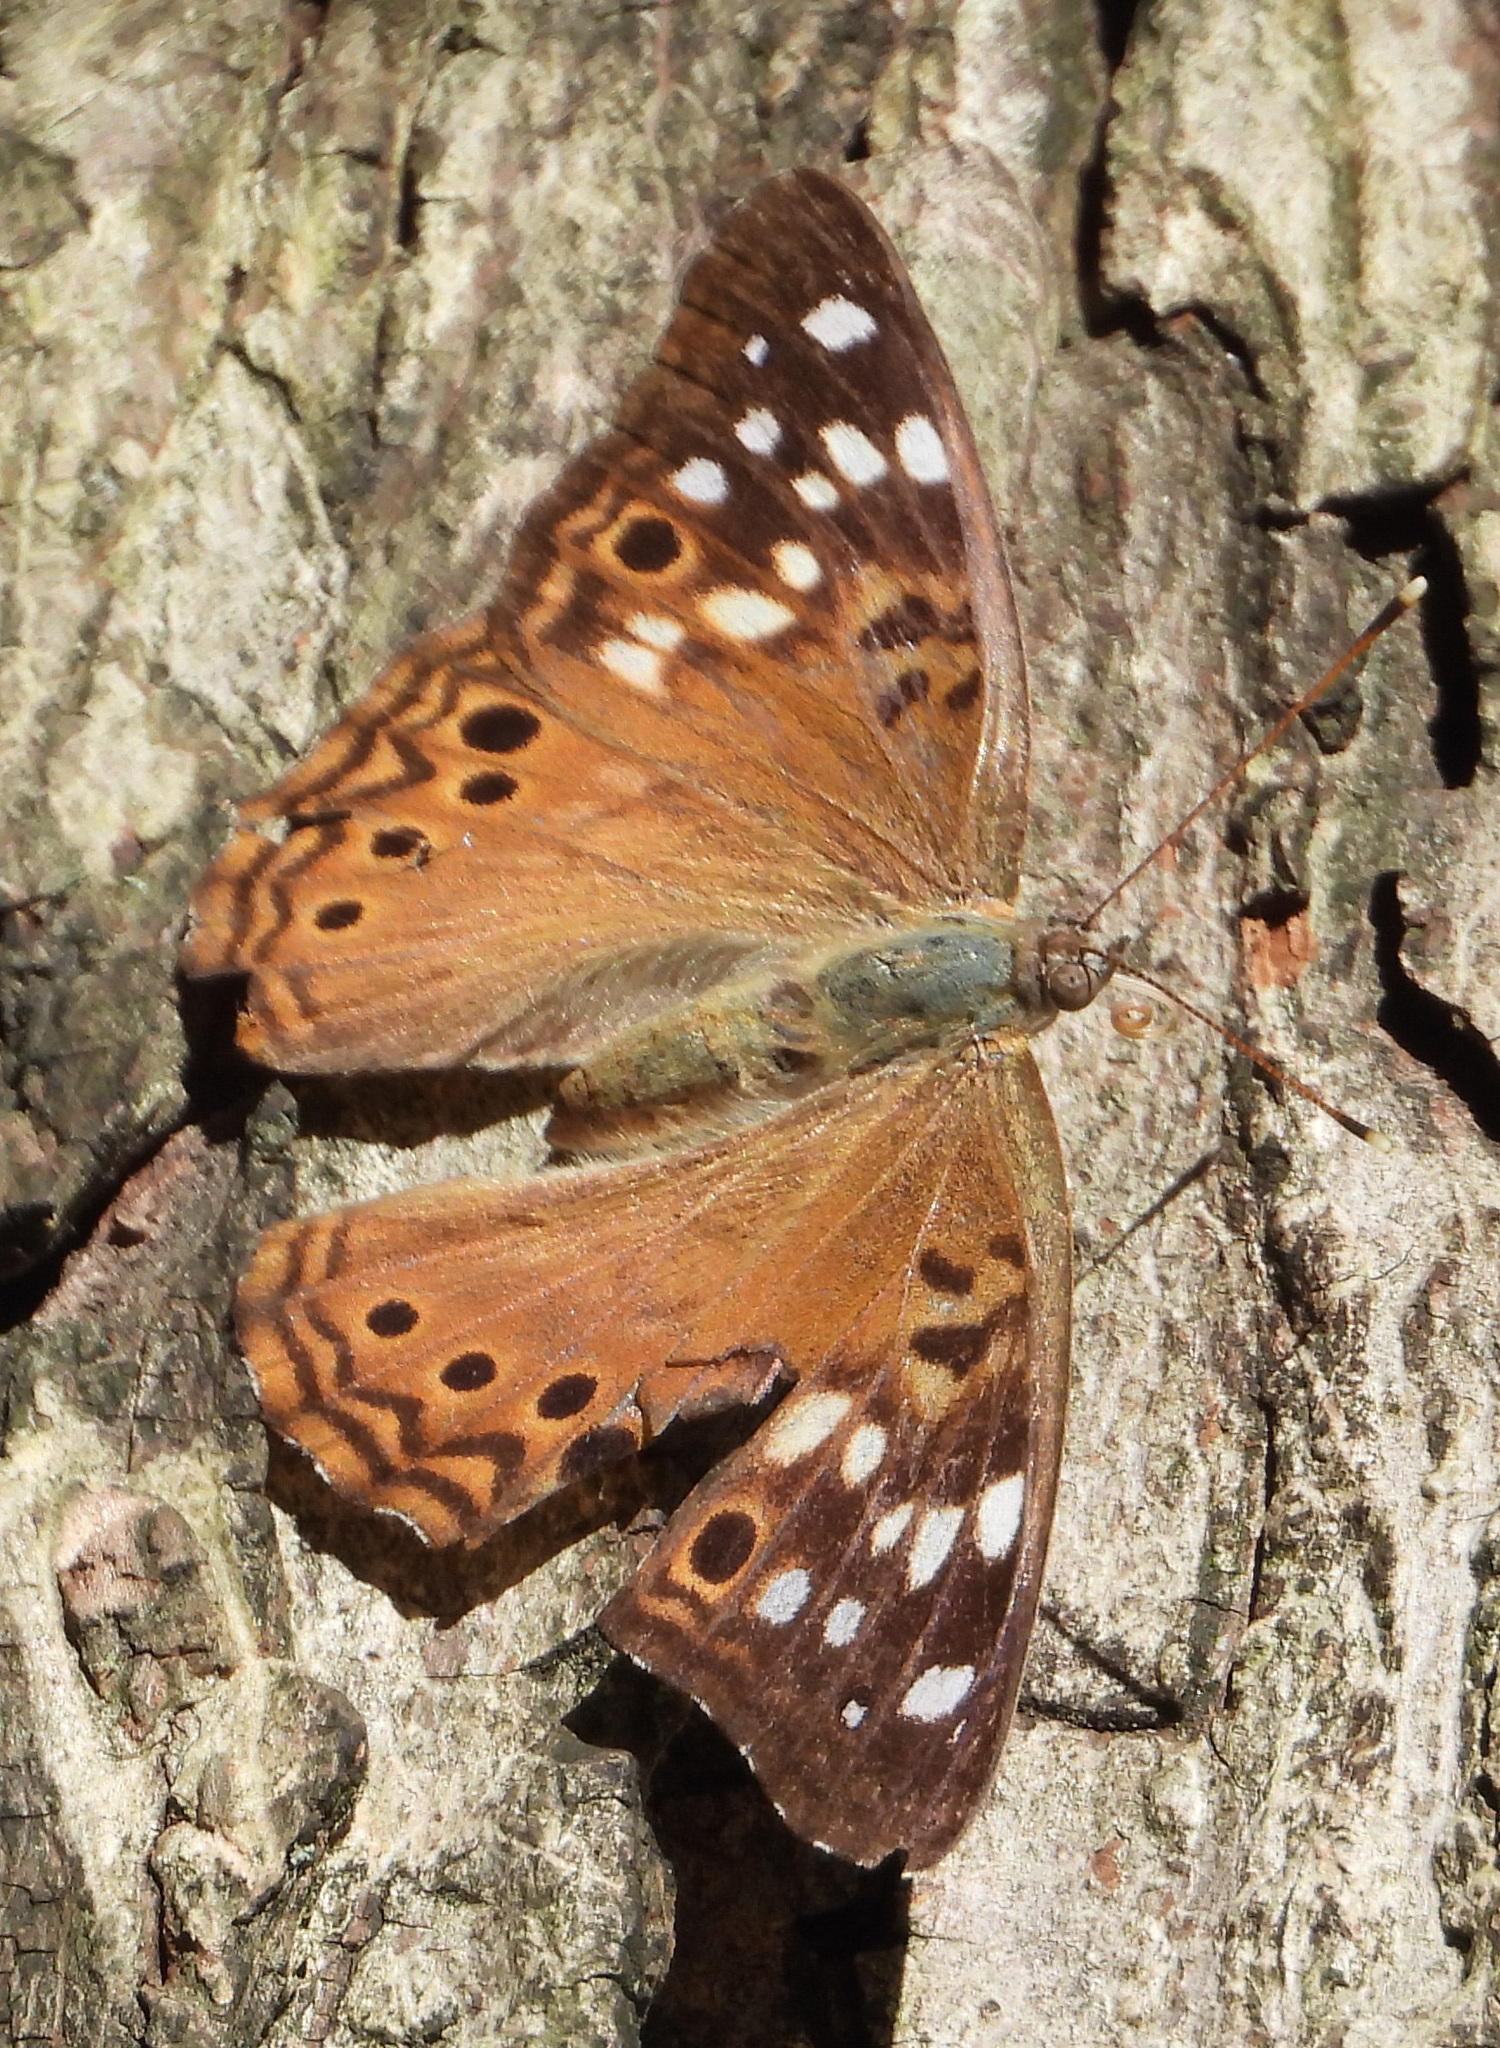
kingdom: Animalia
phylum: Arthropoda
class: Insecta
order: Lepidoptera
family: Nymphalidae
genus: Asterocampa
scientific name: Asterocampa celtis
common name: Hackberry emperor
